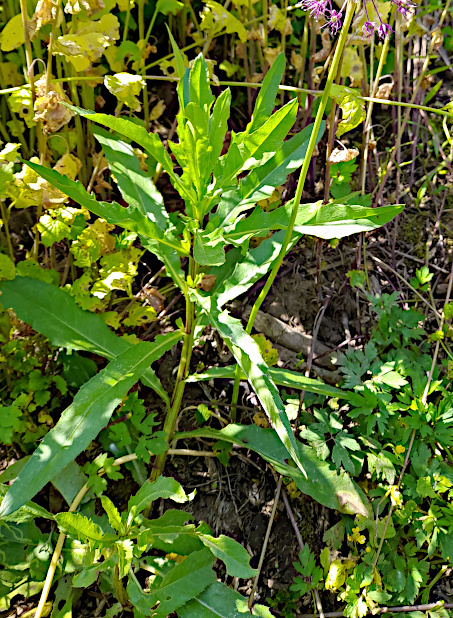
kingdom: Plantae
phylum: Tracheophyta
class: Magnoliopsida
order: Asterales
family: Asteraceae
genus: Cirsium
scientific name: Cirsium arvense
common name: Creeping thistle
